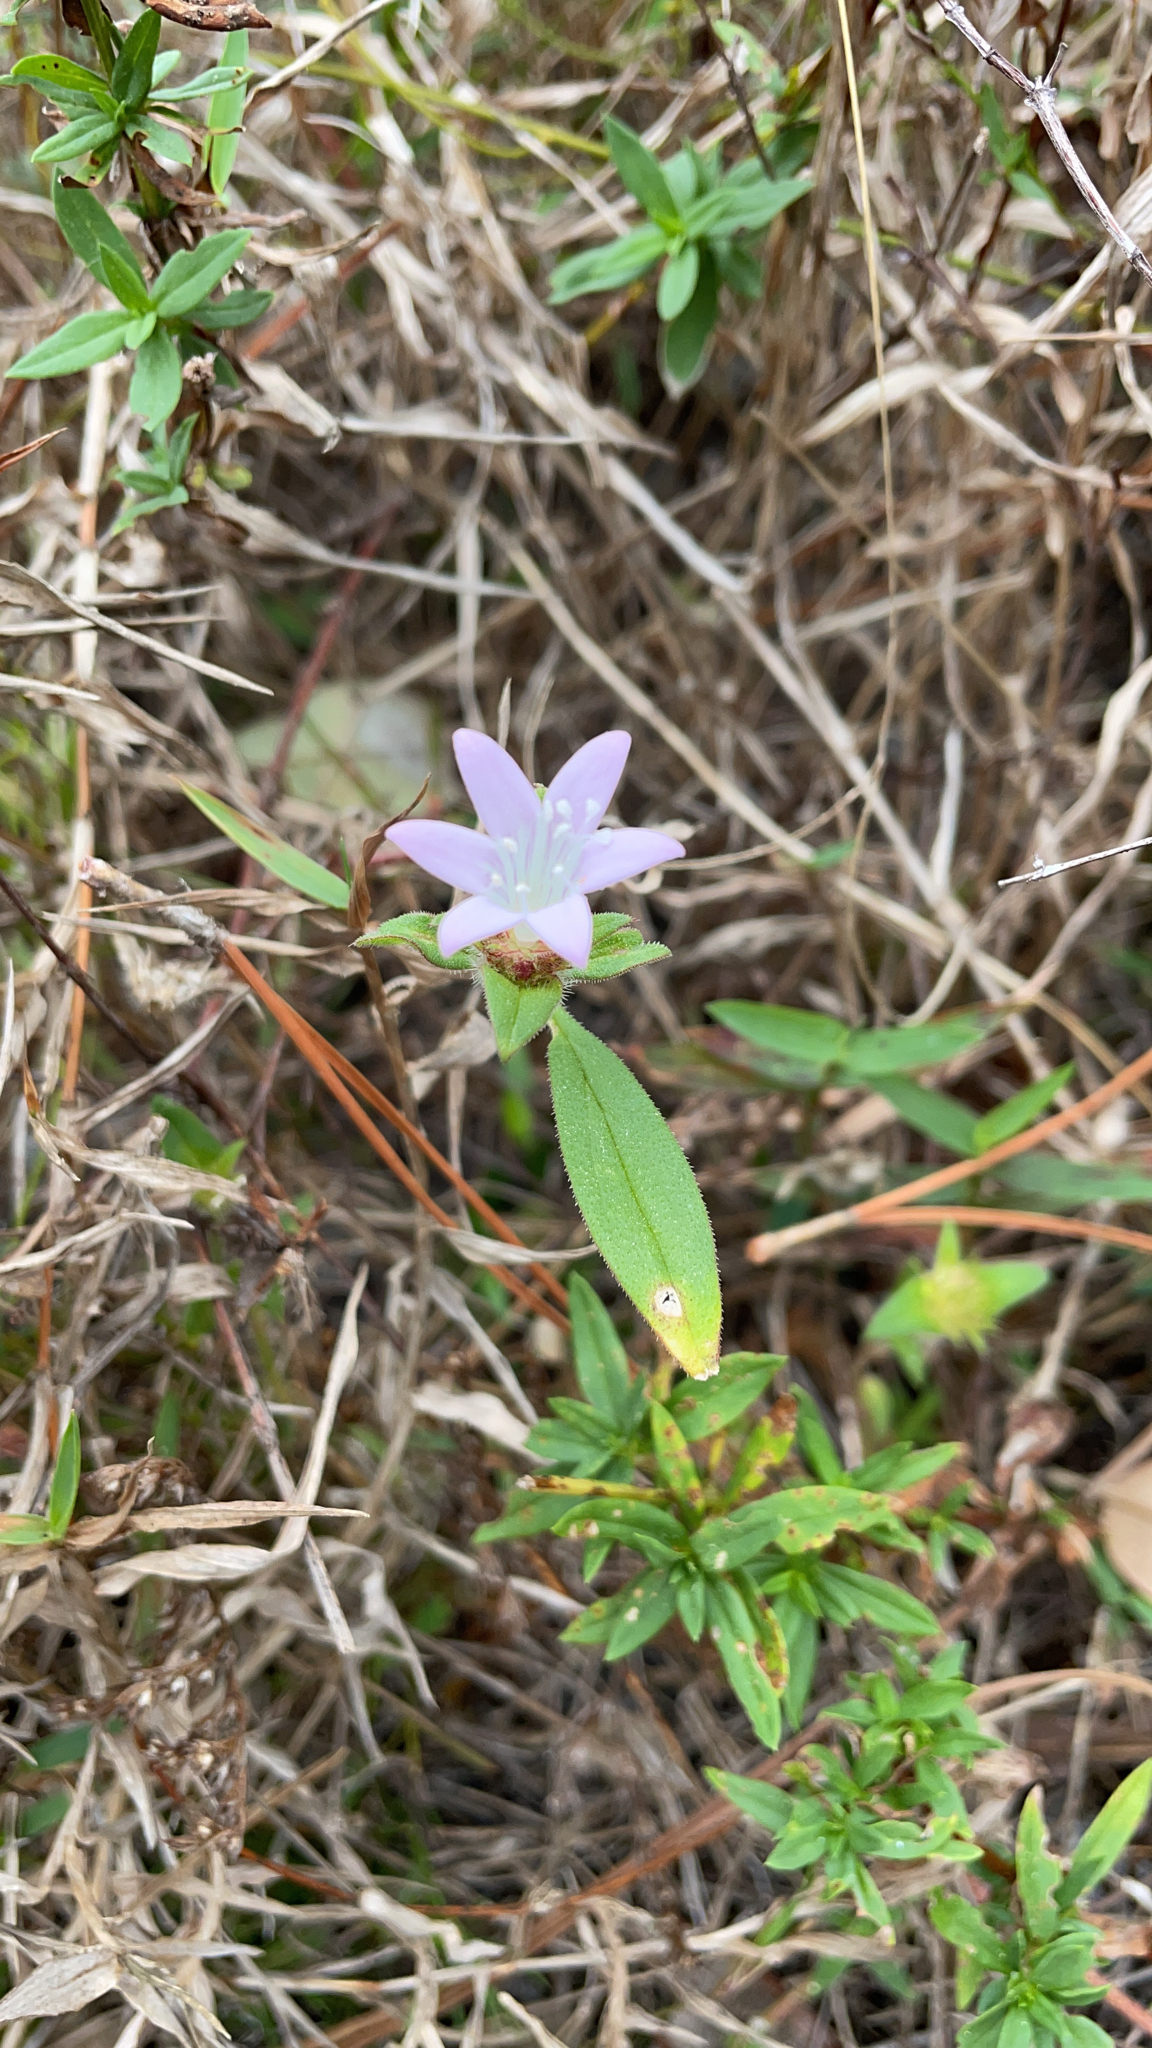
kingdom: Plantae
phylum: Tracheophyta
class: Magnoliopsida
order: Gentianales
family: Rubiaceae
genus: Richardia
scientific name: Richardia grandiflora
